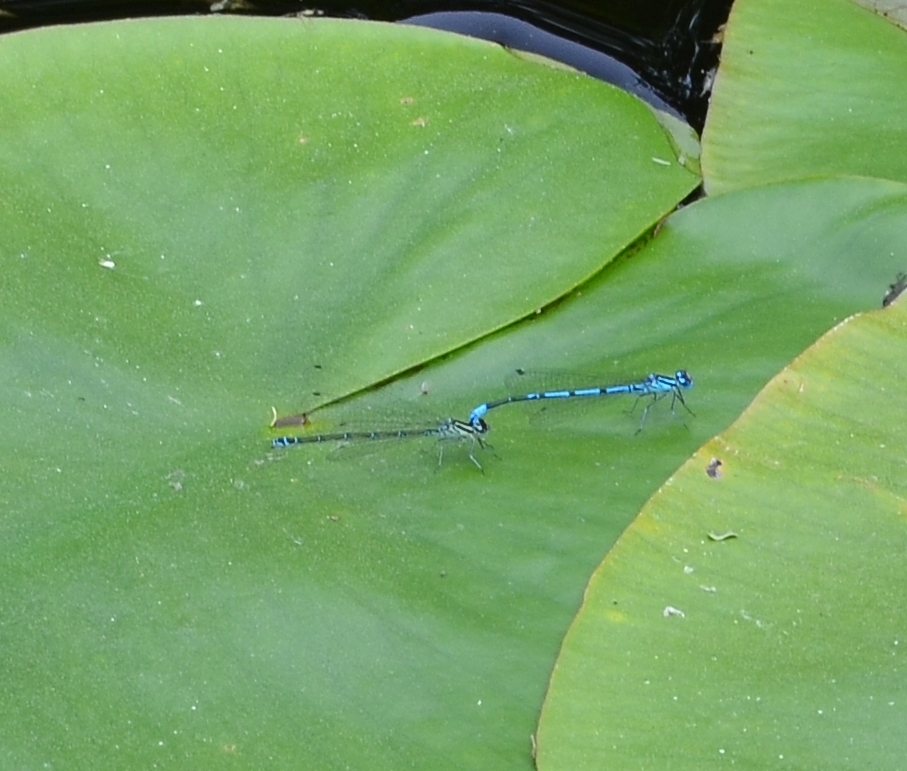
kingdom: Animalia
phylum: Arthropoda
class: Insecta
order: Odonata
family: Coenagrionidae
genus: Coenagrion
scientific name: Coenagrion puella
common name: Azure damselfly
